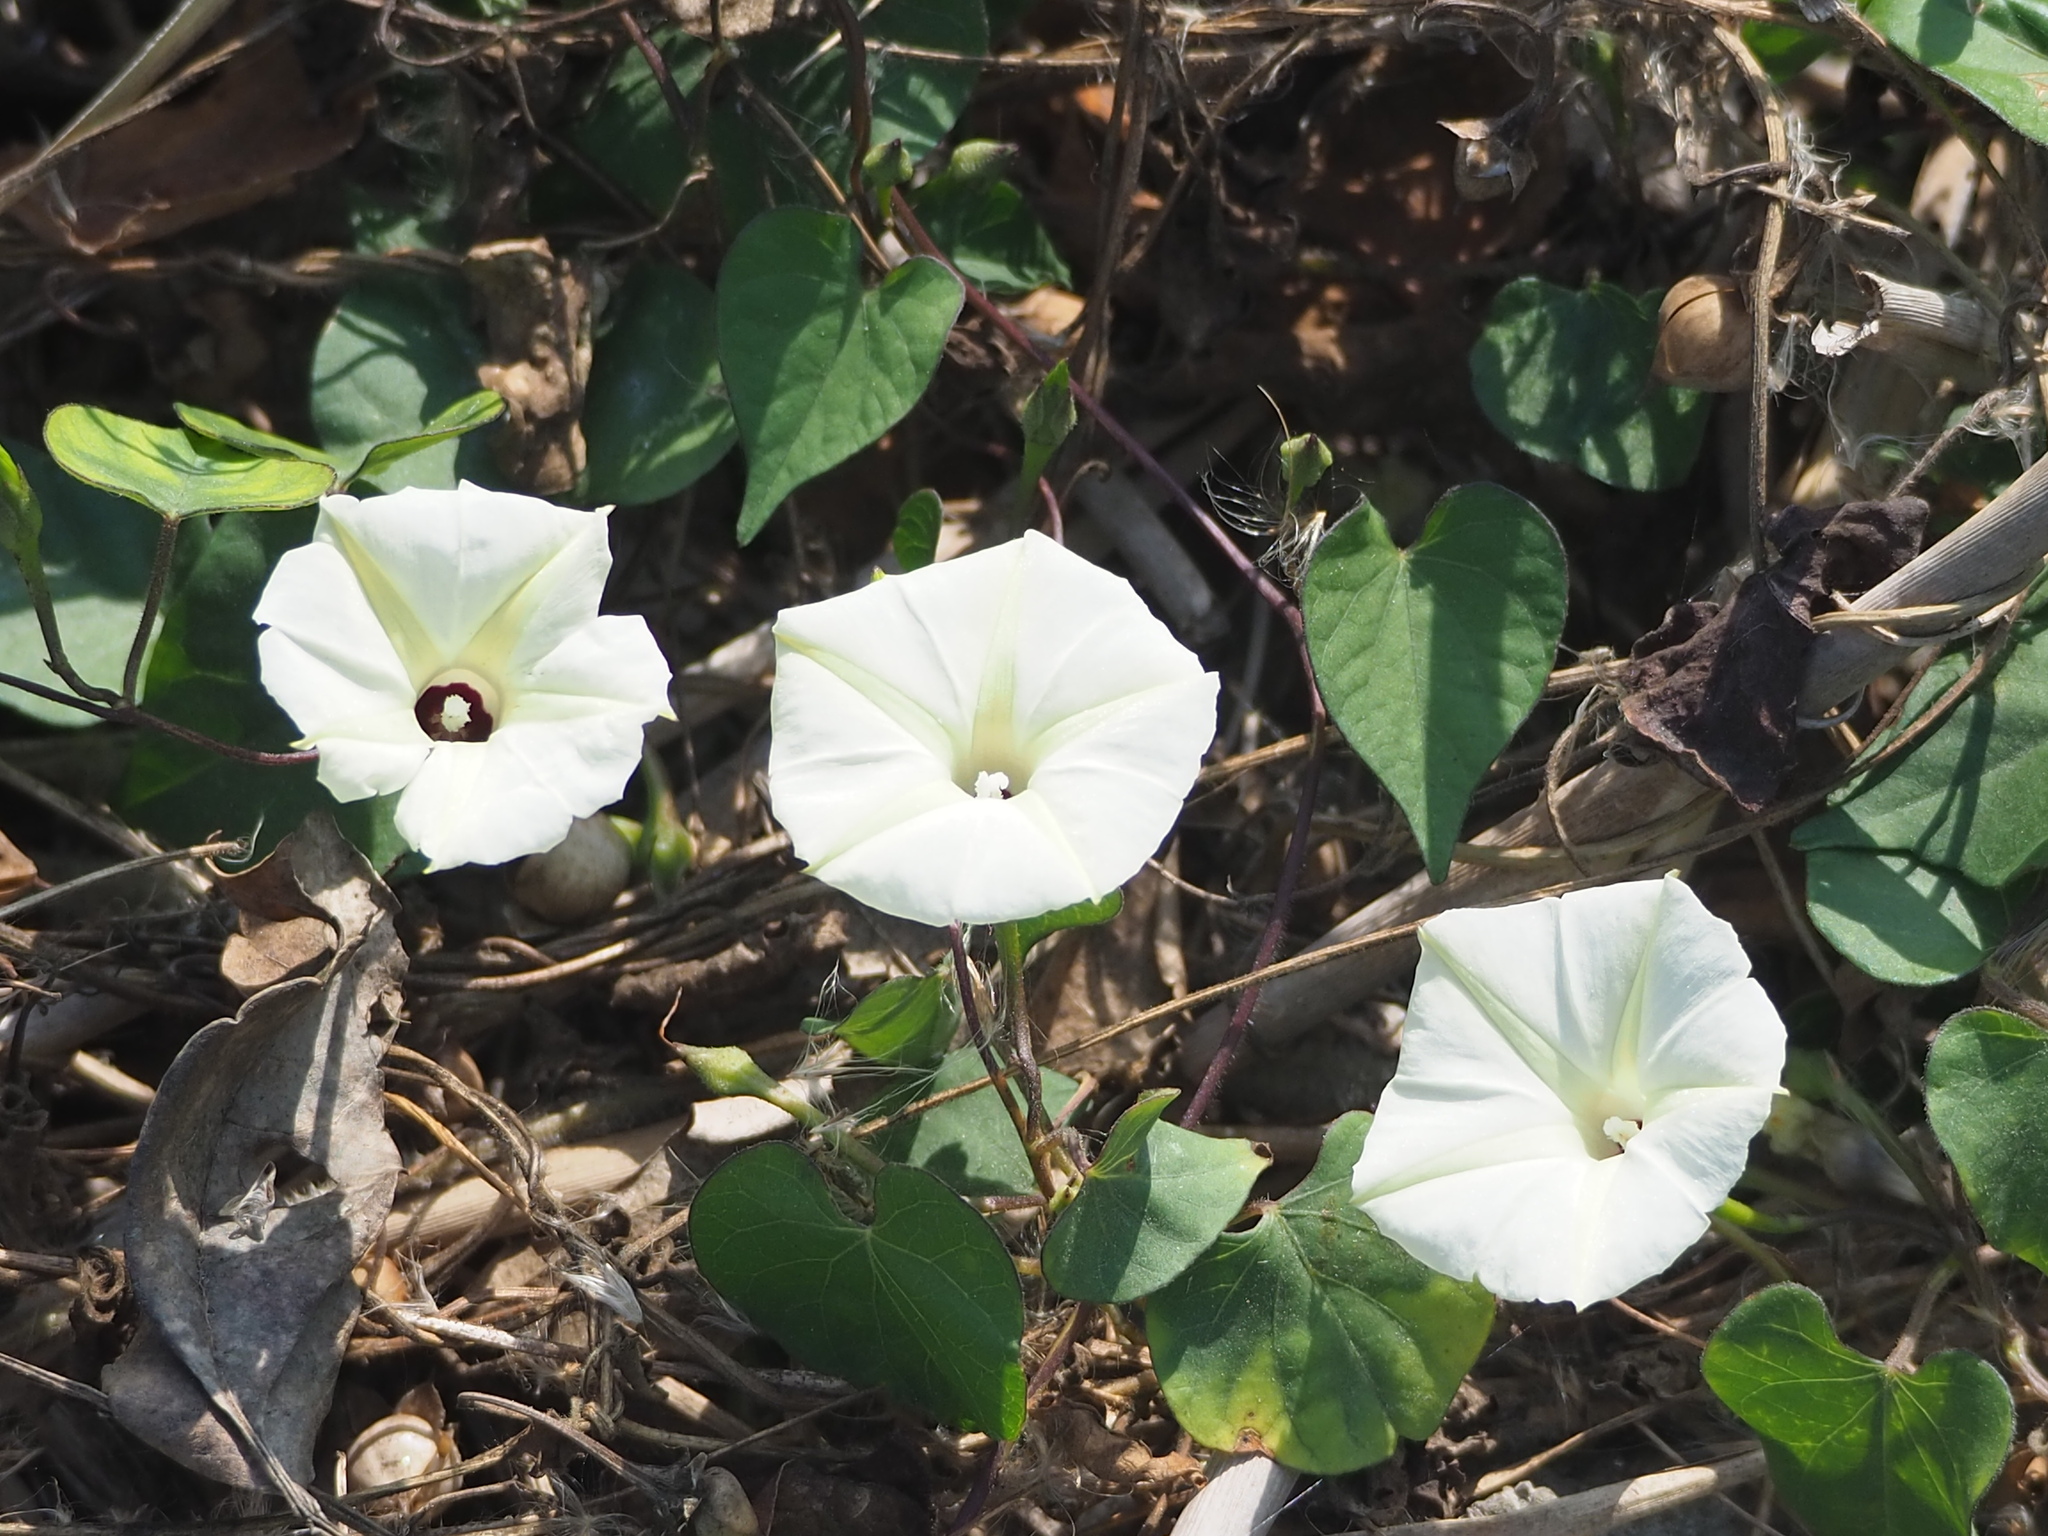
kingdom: Plantae
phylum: Tracheophyta
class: Magnoliopsida
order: Solanales
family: Convolvulaceae
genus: Ipomoea
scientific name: Ipomoea obscura
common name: Obscure morning-glory
